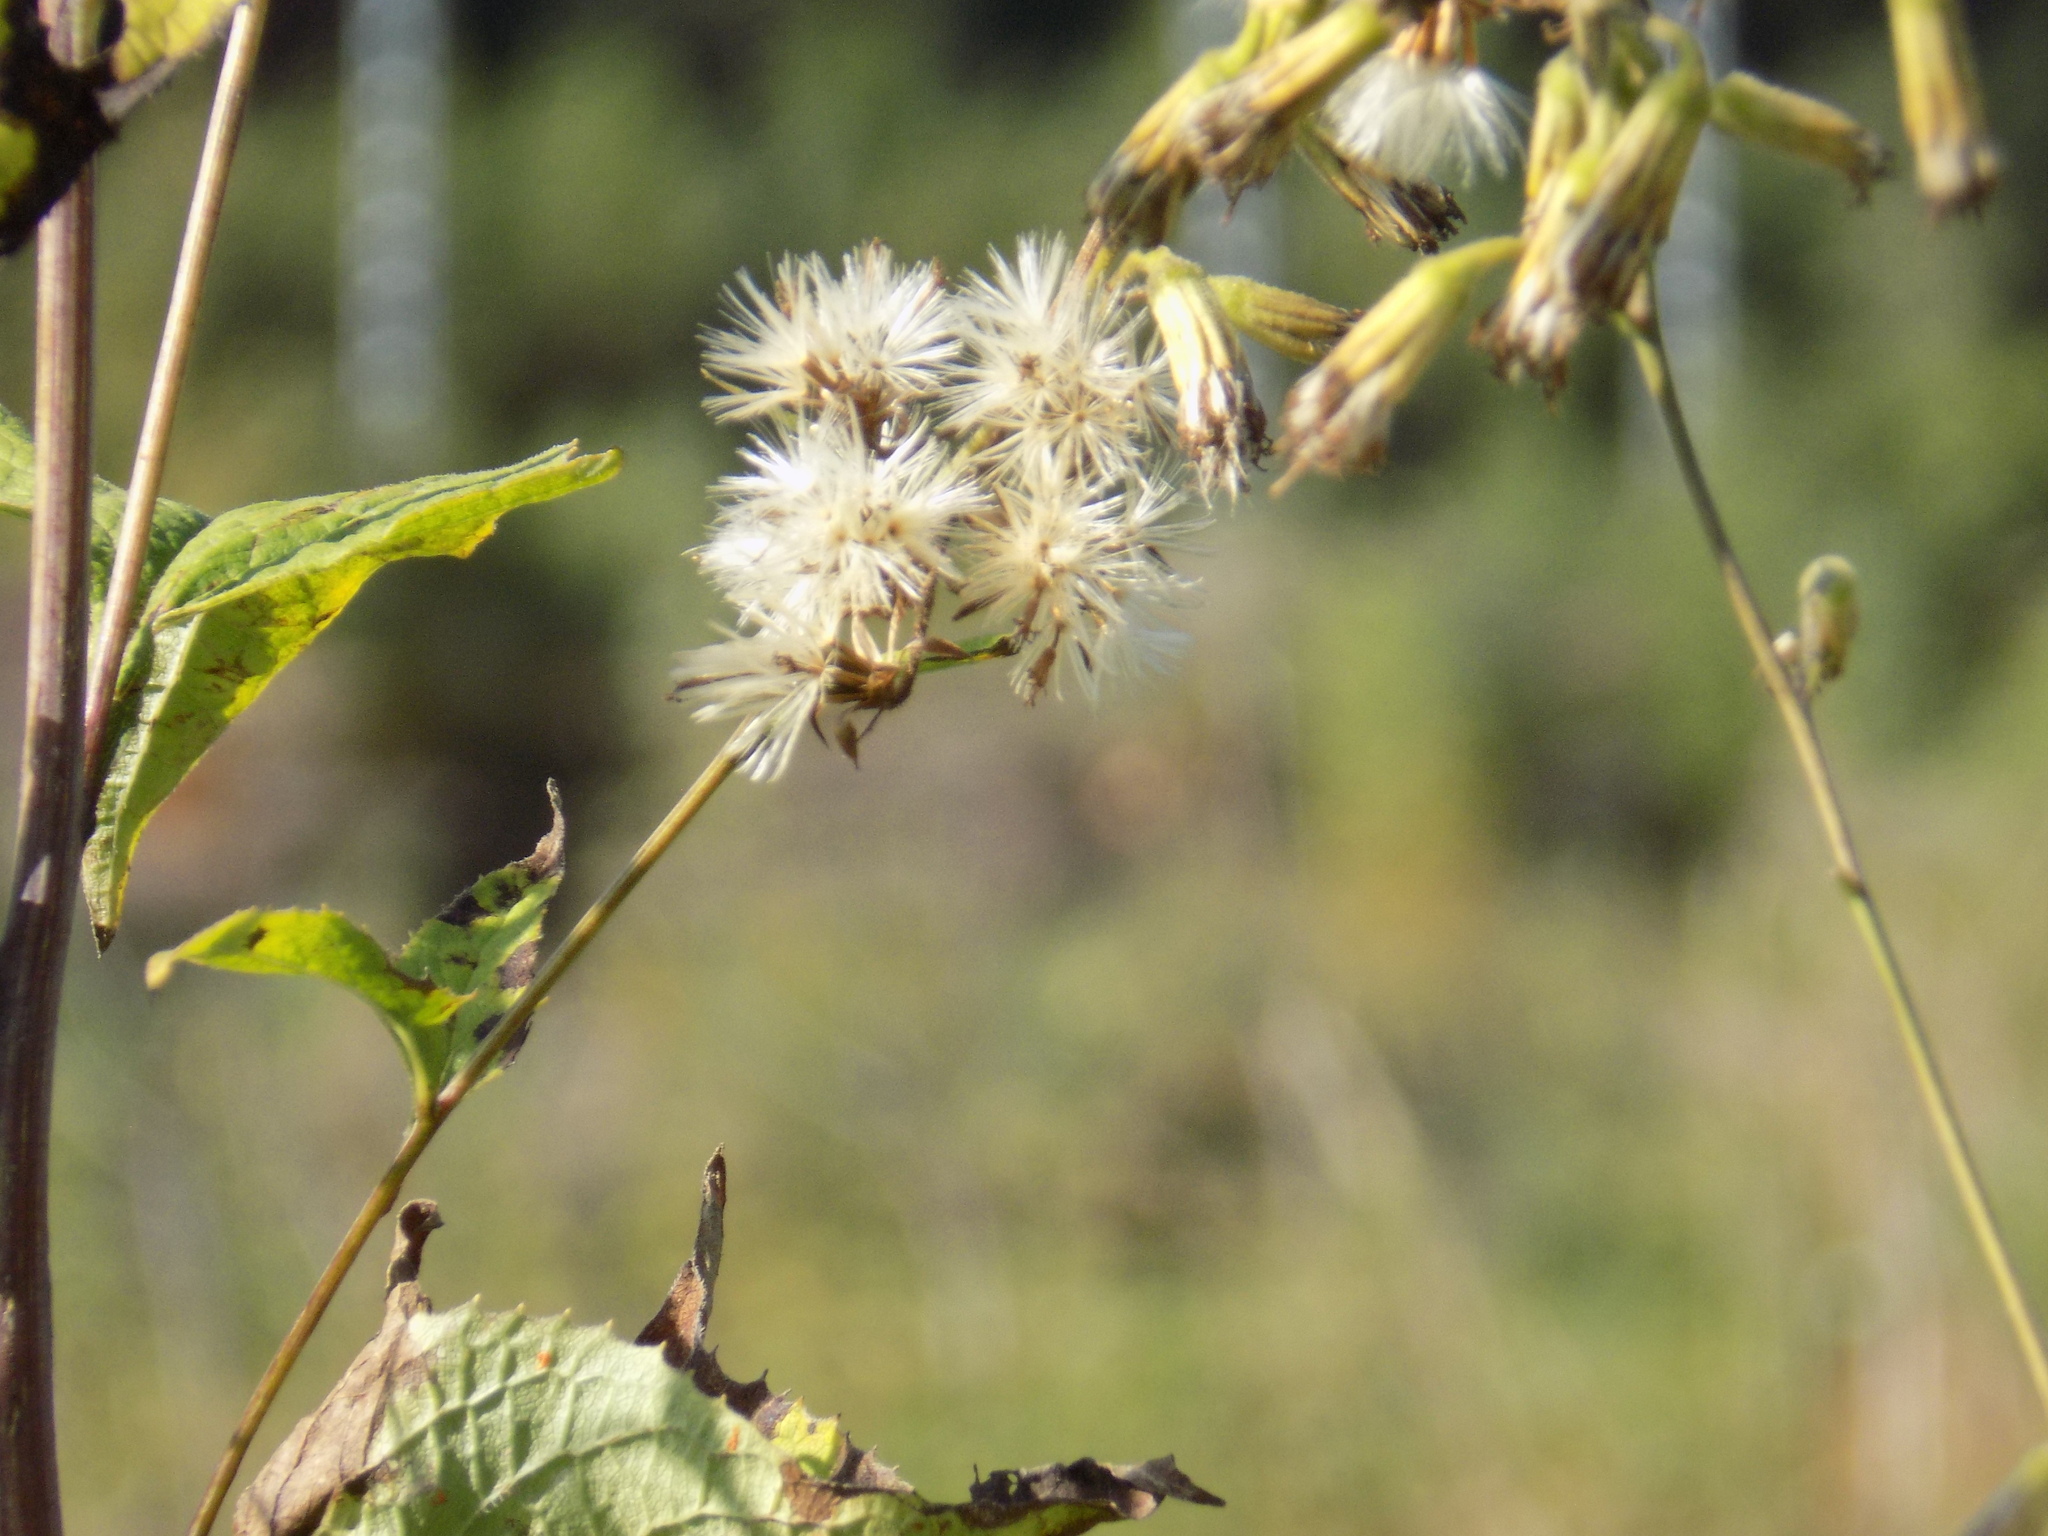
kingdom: Plantae
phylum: Tracheophyta
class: Magnoliopsida
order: Asterales
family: Asteraceae
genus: Parasenecio
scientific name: Parasenecio hastatus
